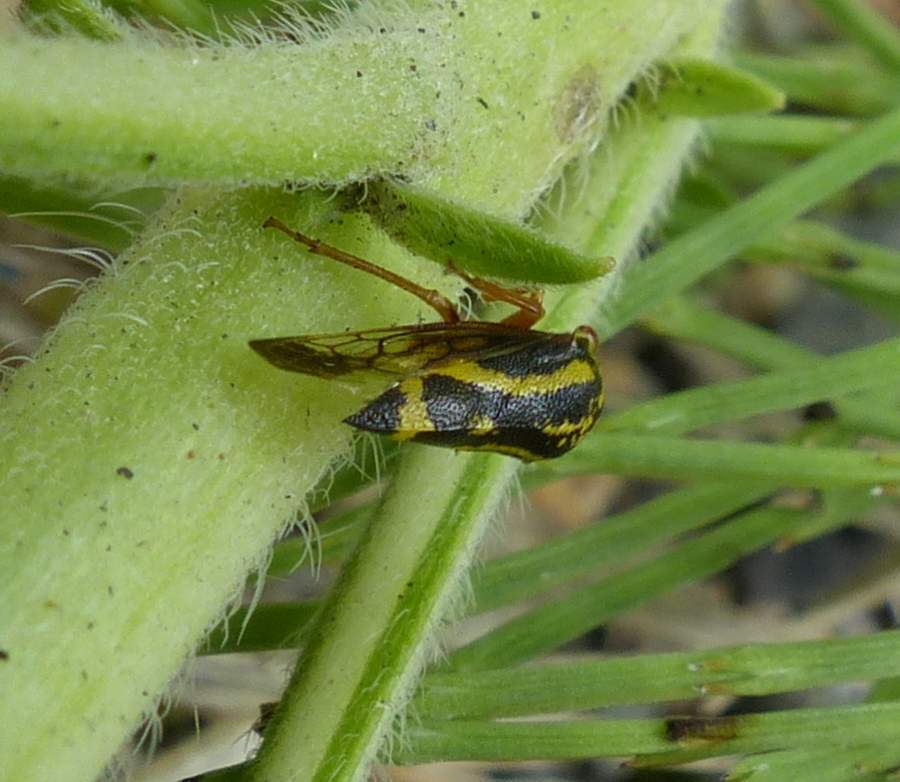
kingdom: Animalia
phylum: Arthropoda
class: Insecta
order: Hemiptera
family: Membracidae
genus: Ophiderma
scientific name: Ophiderma flava
